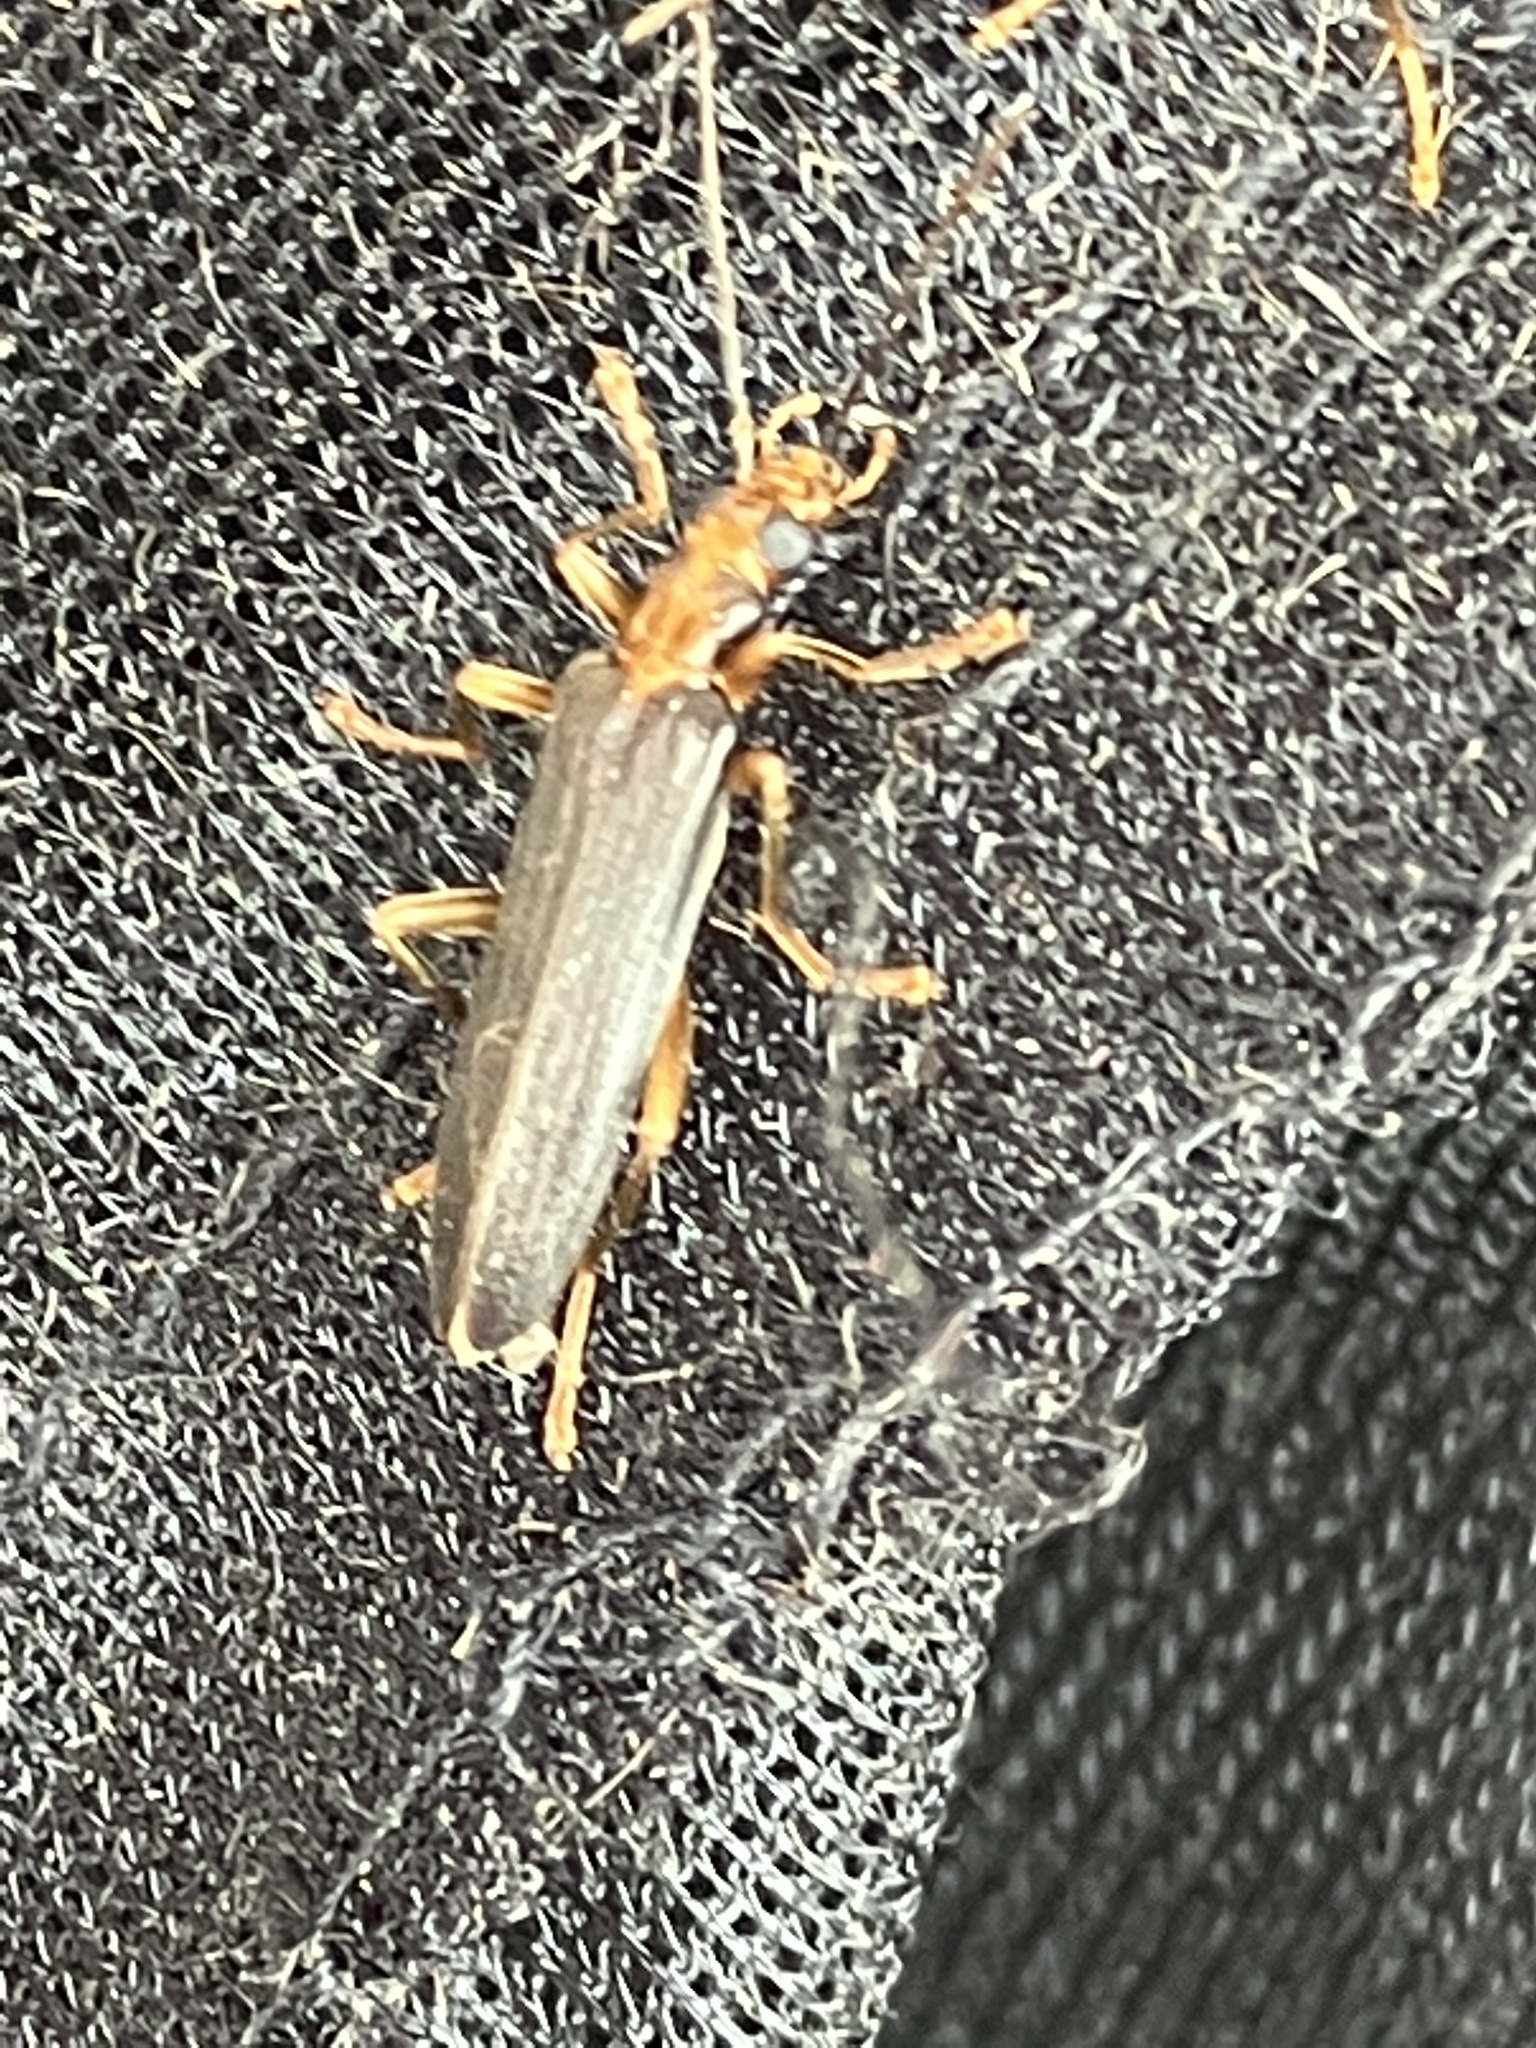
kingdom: Animalia
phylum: Arthropoda
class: Insecta
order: Coleoptera
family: Oedemeridae
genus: Nacerdes
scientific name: Nacerdes carniolica
